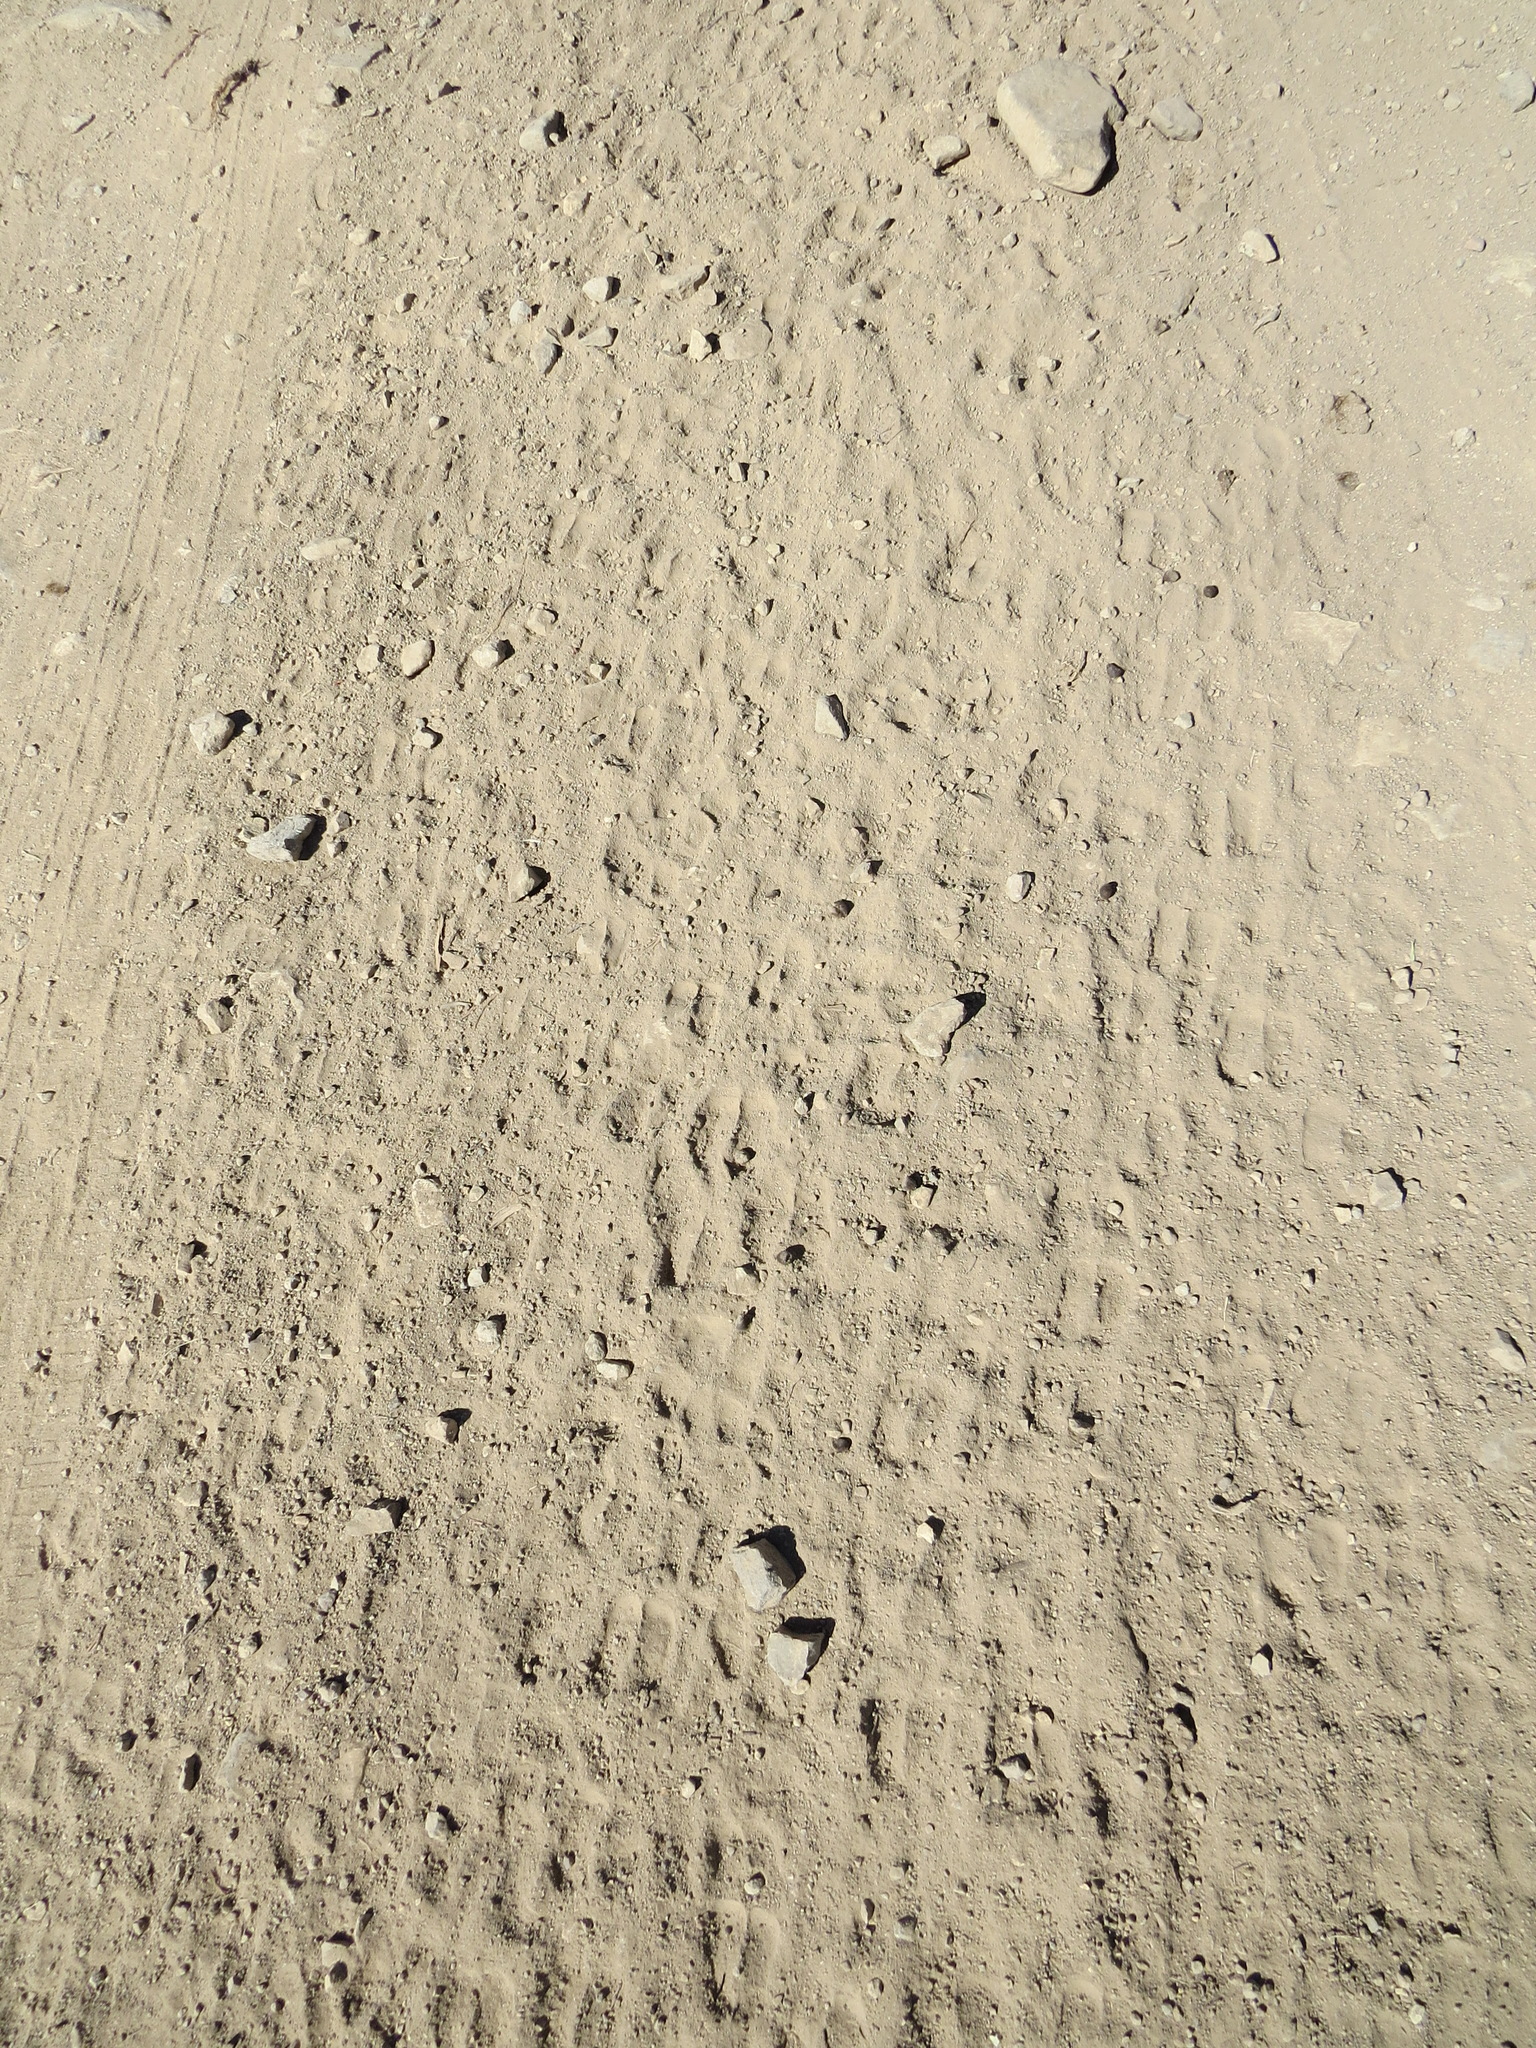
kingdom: Animalia
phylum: Chordata
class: Mammalia
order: Artiodactyla
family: Bovidae
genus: Ovis
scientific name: Ovis aries
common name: Domestic sheep
